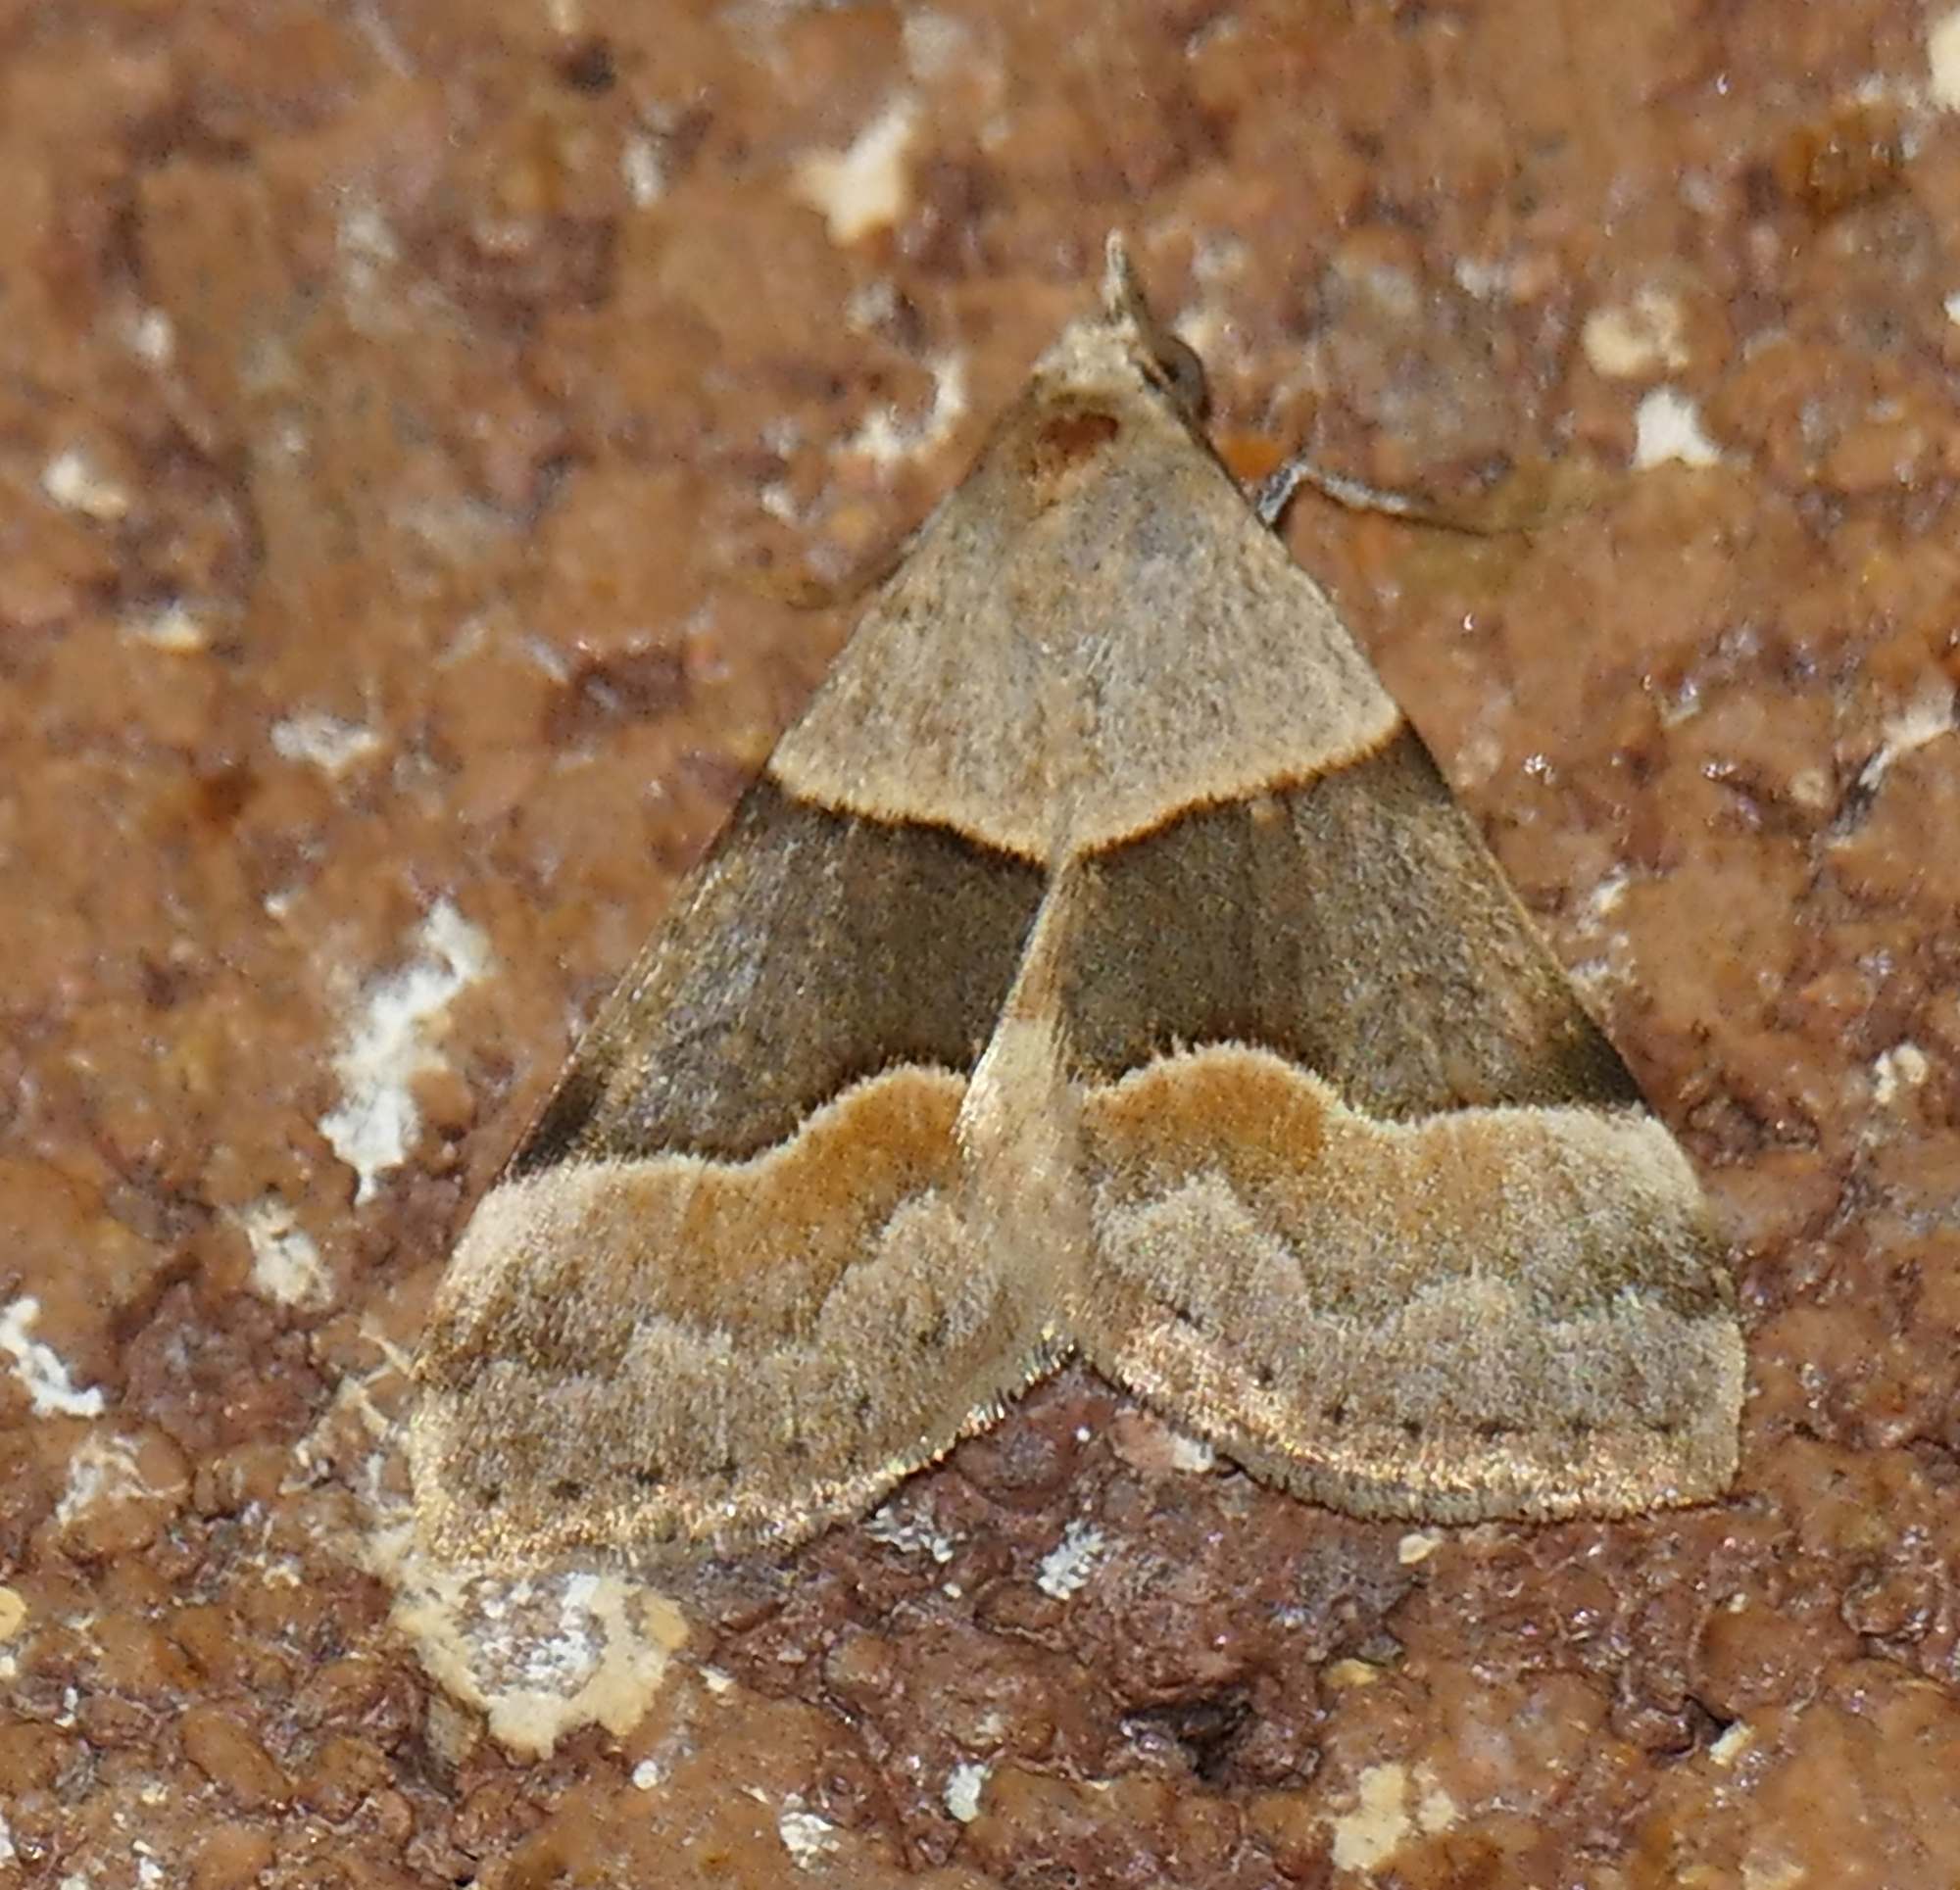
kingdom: Animalia
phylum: Arthropoda
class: Insecta
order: Lepidoptera
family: Erebidae
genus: Hemeroplanis
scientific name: Hemeroplanis incusalis
